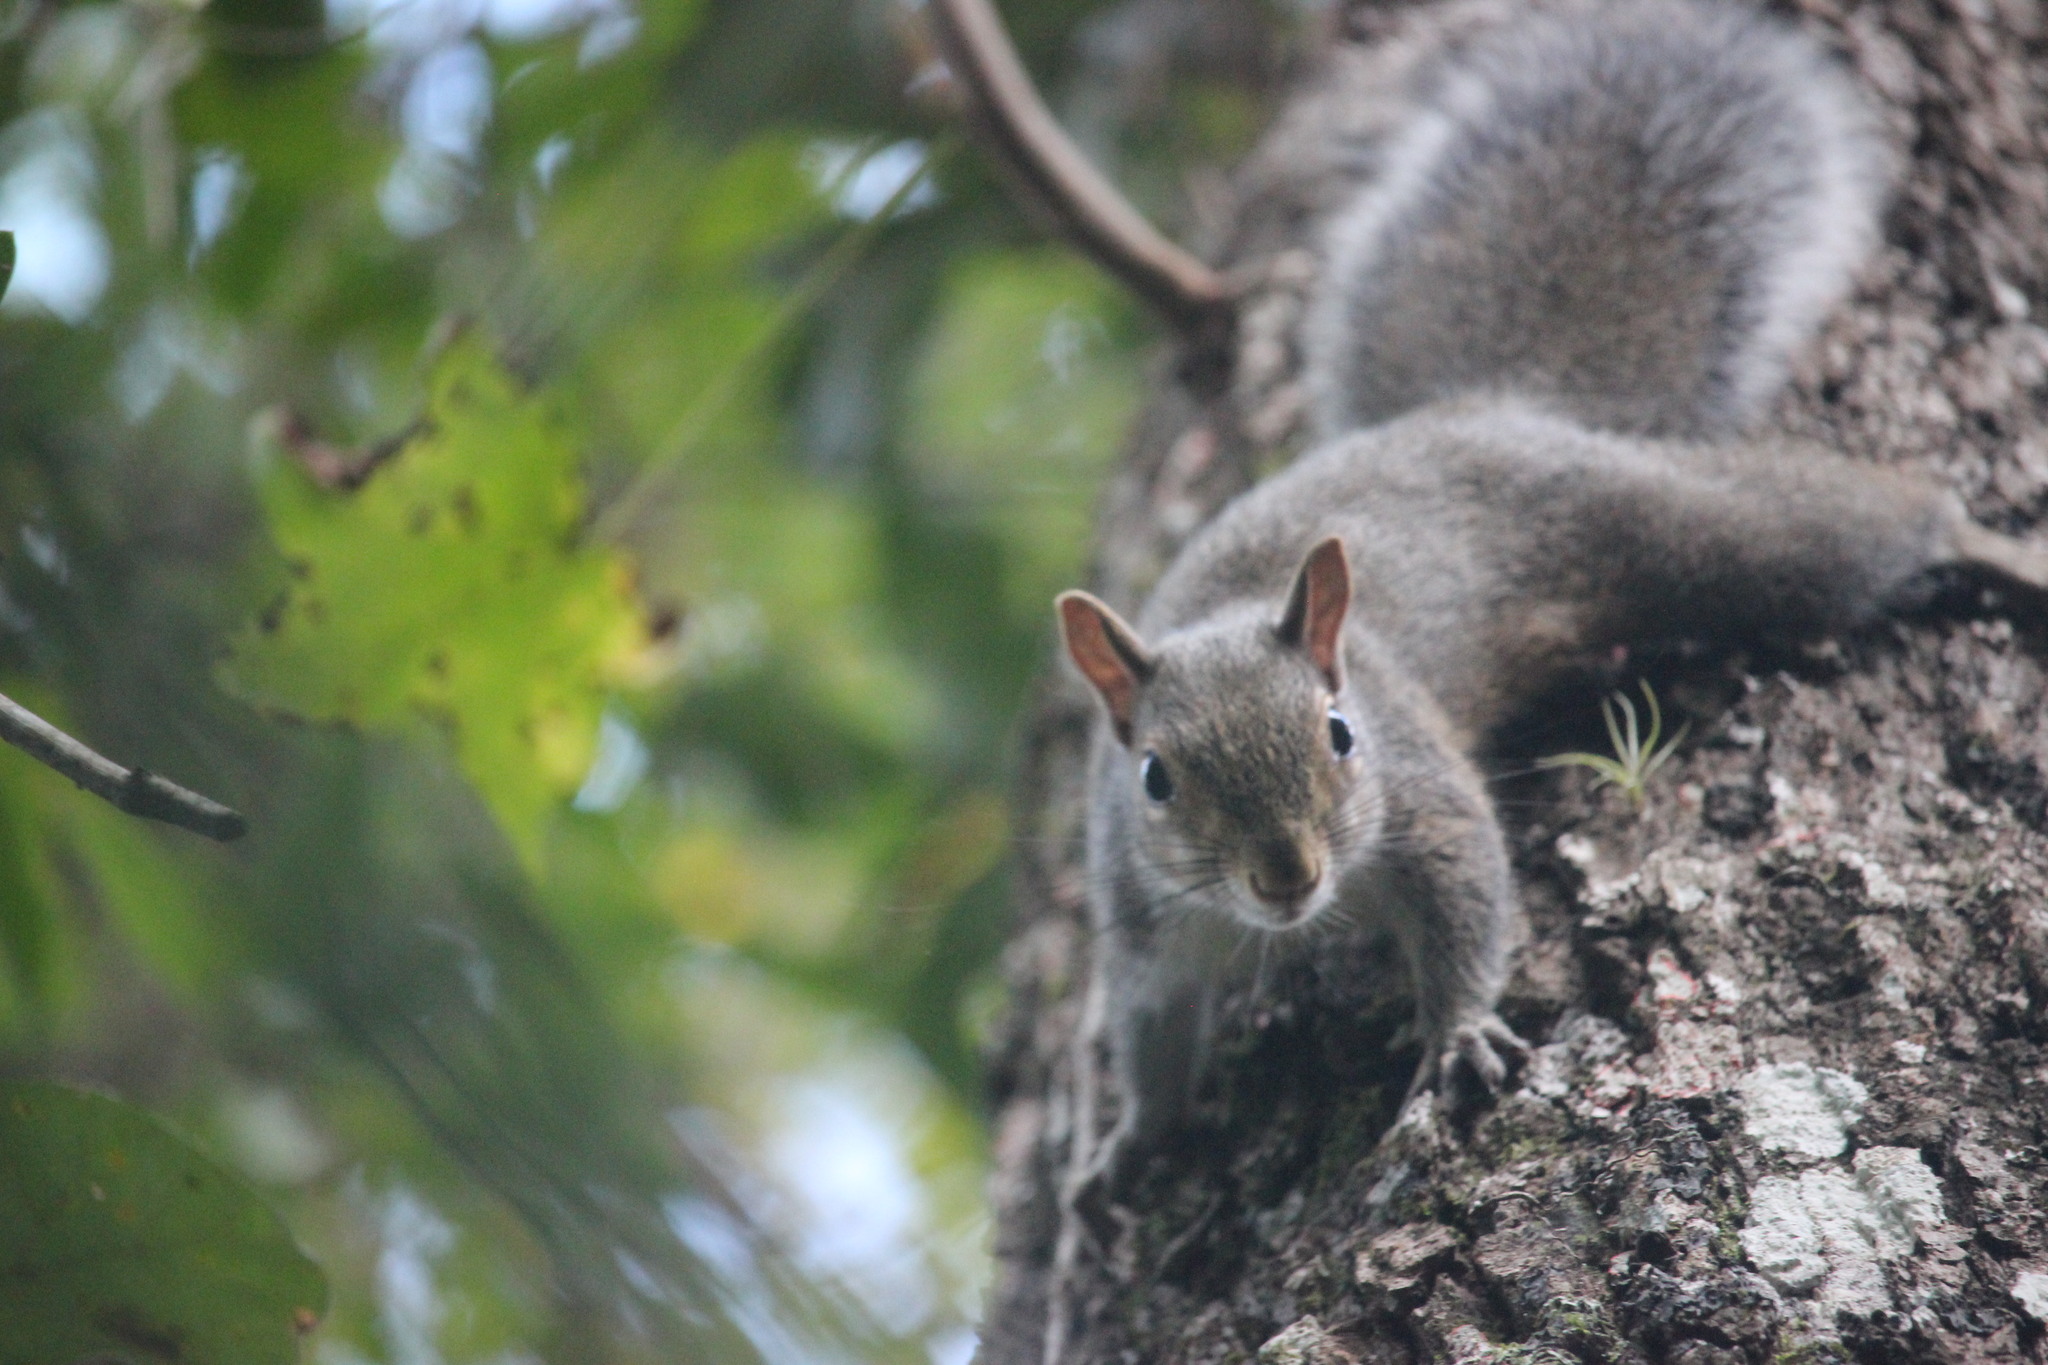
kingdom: Animalia
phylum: Chordata
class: Mammalia
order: Rodentia
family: Sciuridae
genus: Sciurus
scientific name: Sciurus carolinensis
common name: Eastern gray squirrel
